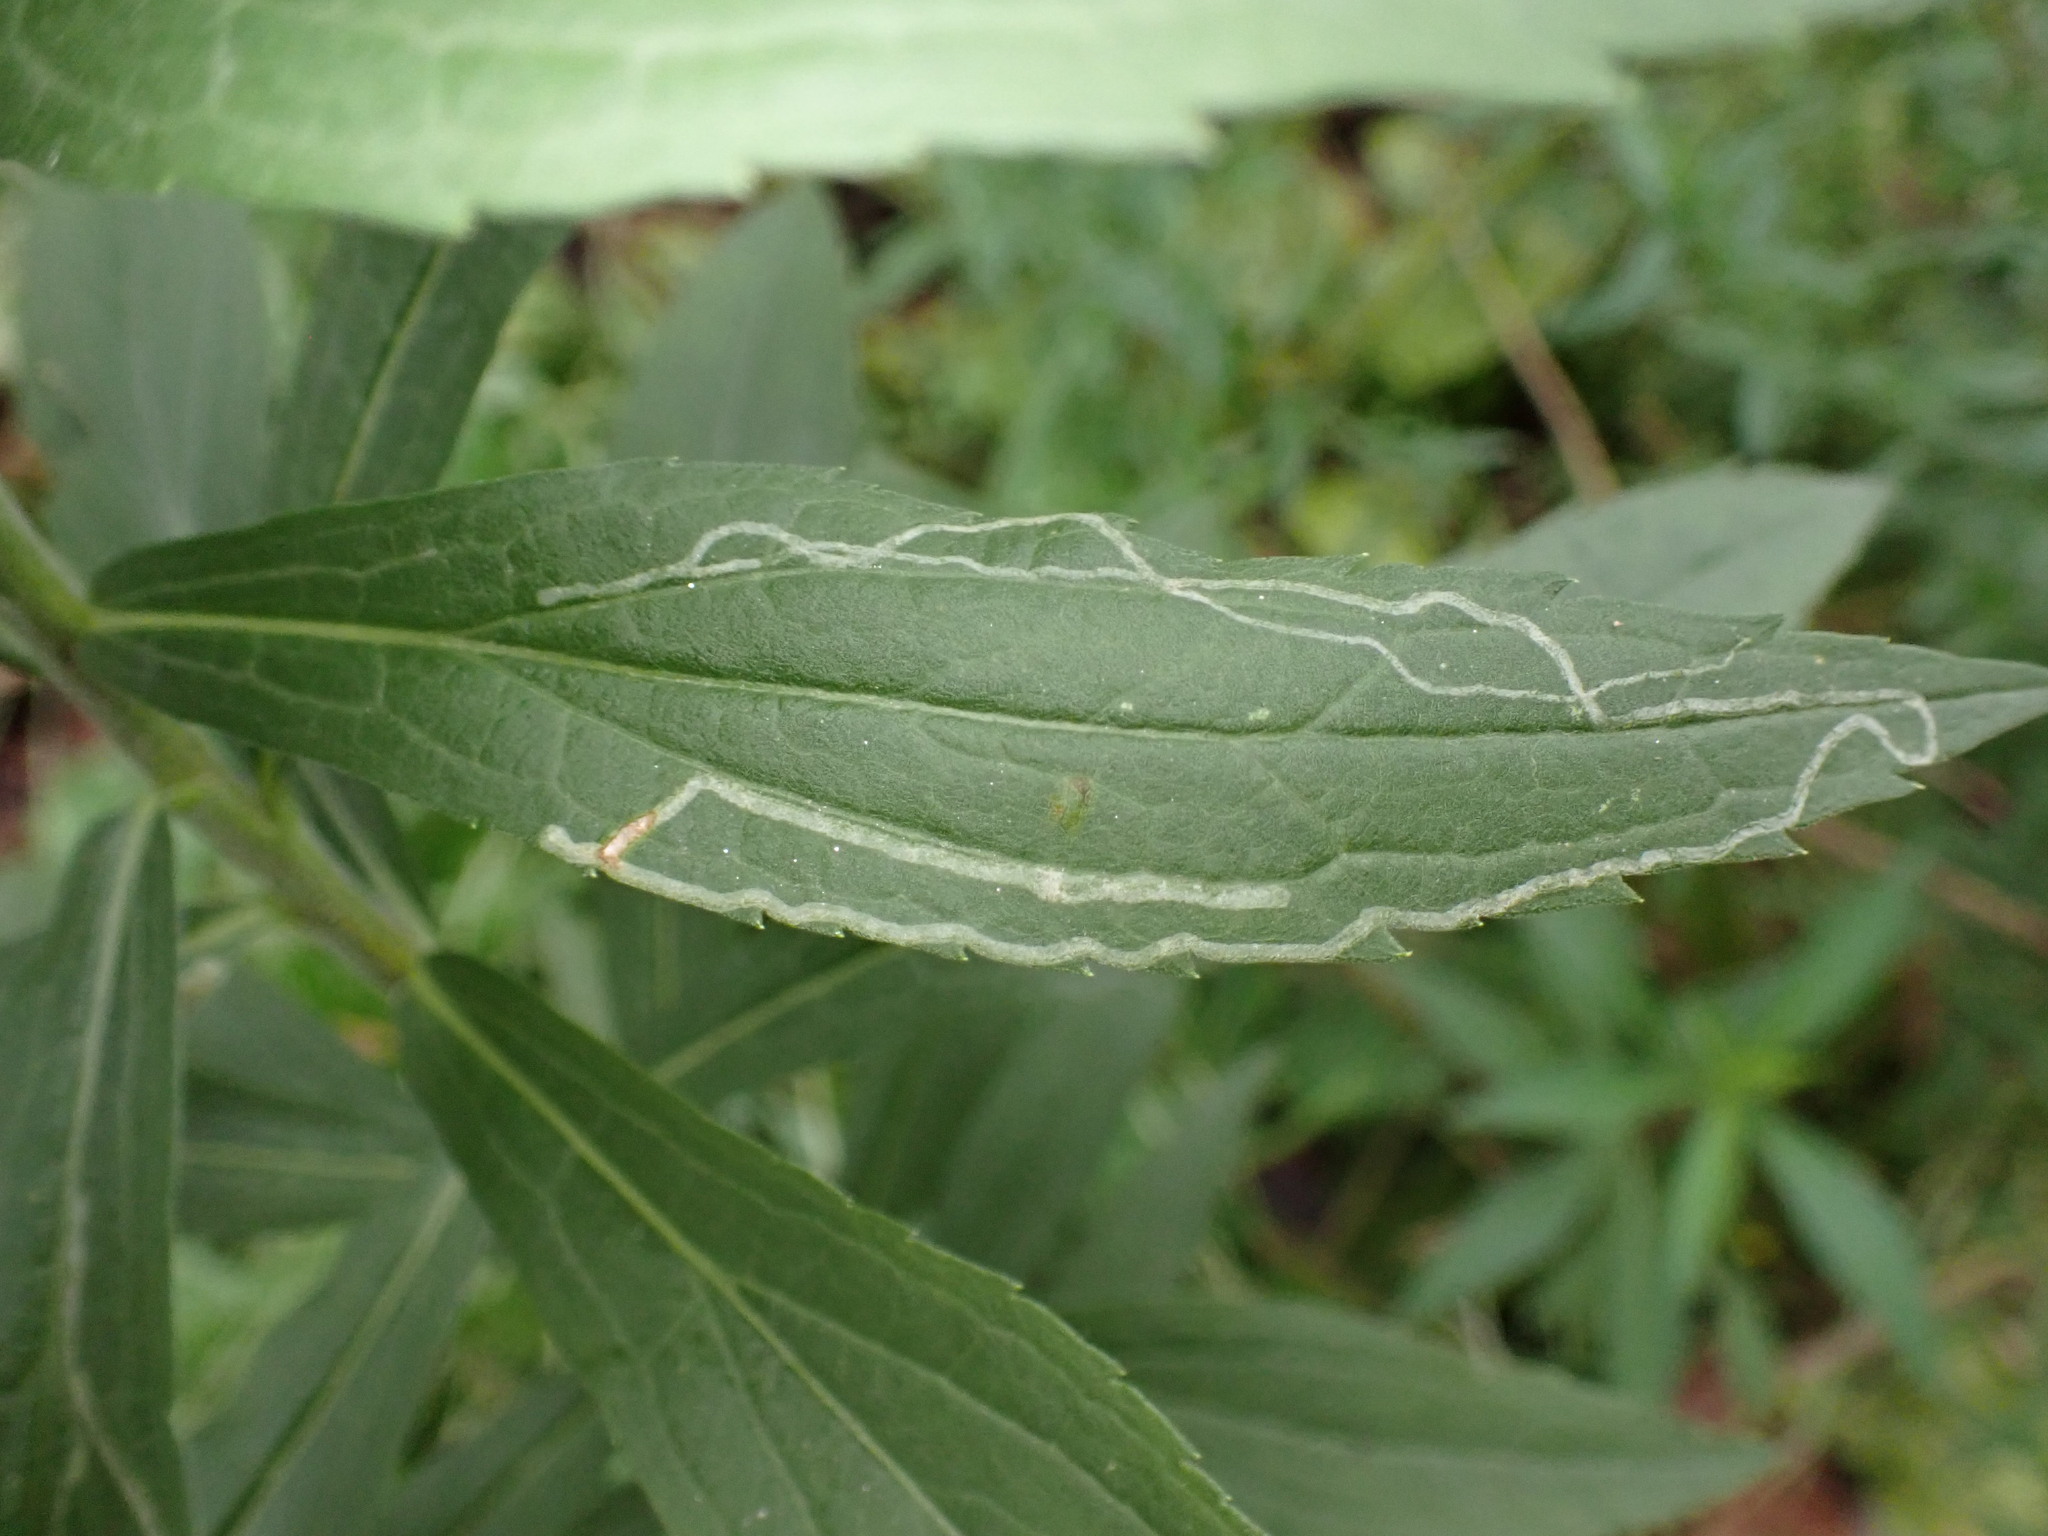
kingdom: Animalia
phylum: Arthropoda
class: Insecta
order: Diptera
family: Agromyzidae
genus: Ophiomyia
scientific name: Ophiomyia maura
